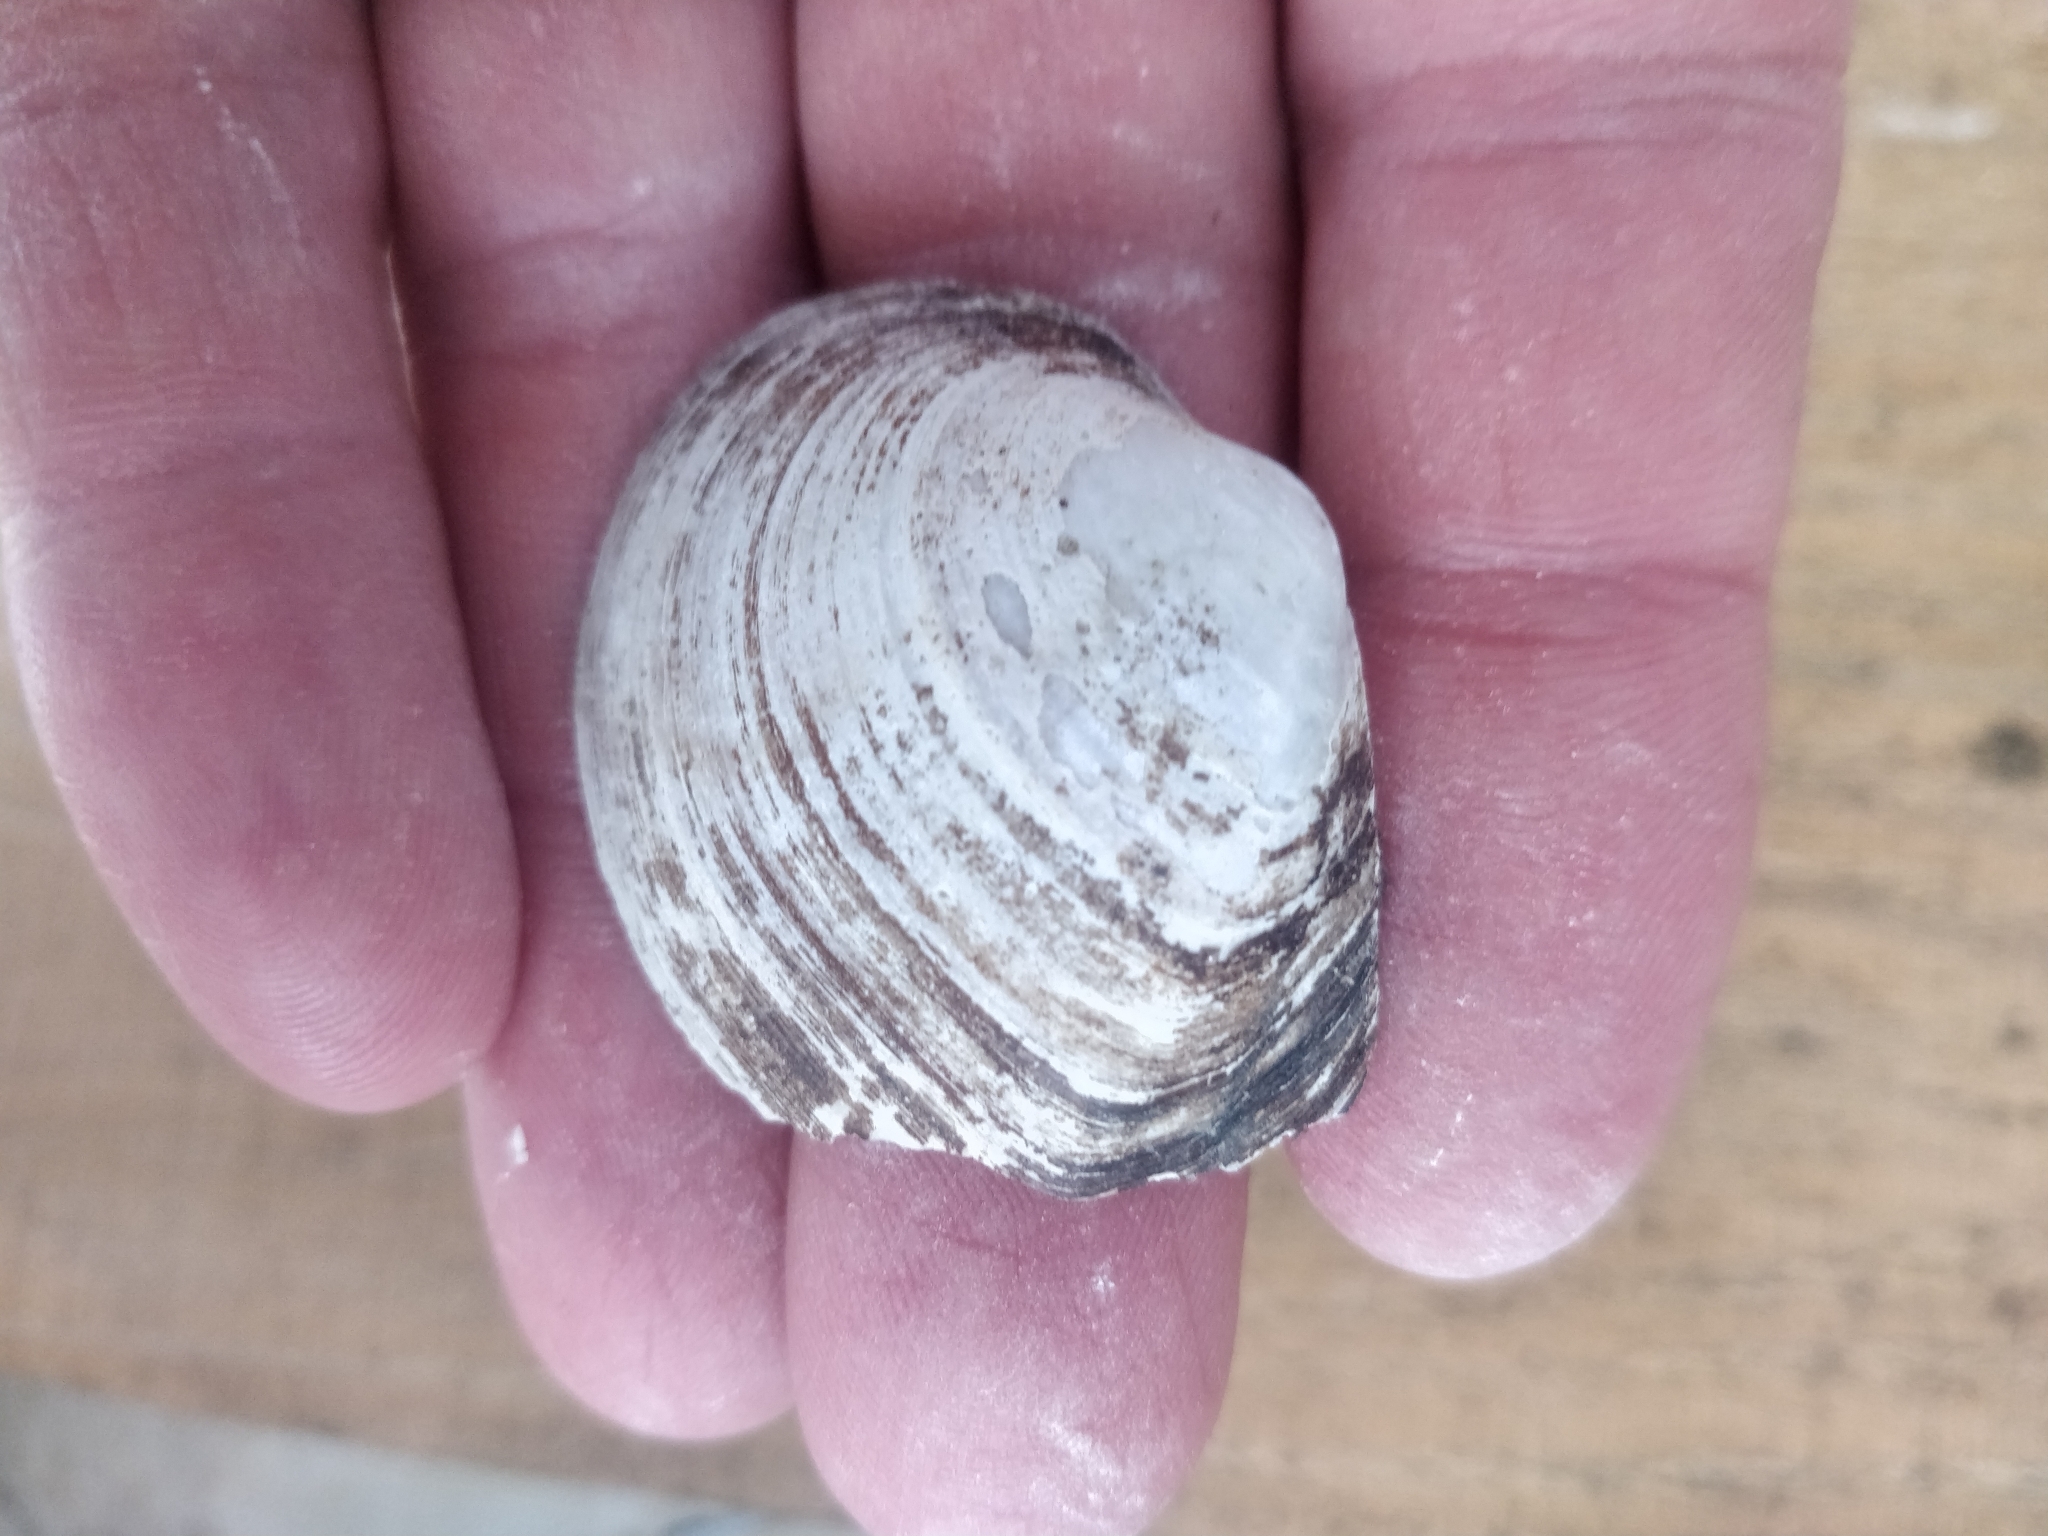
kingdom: Animalia
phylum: Mollusca
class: Bivalvia
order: Unionida
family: Unionidae
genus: Fusconaia
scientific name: Fusconaia flava
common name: Wabash pigtoe
